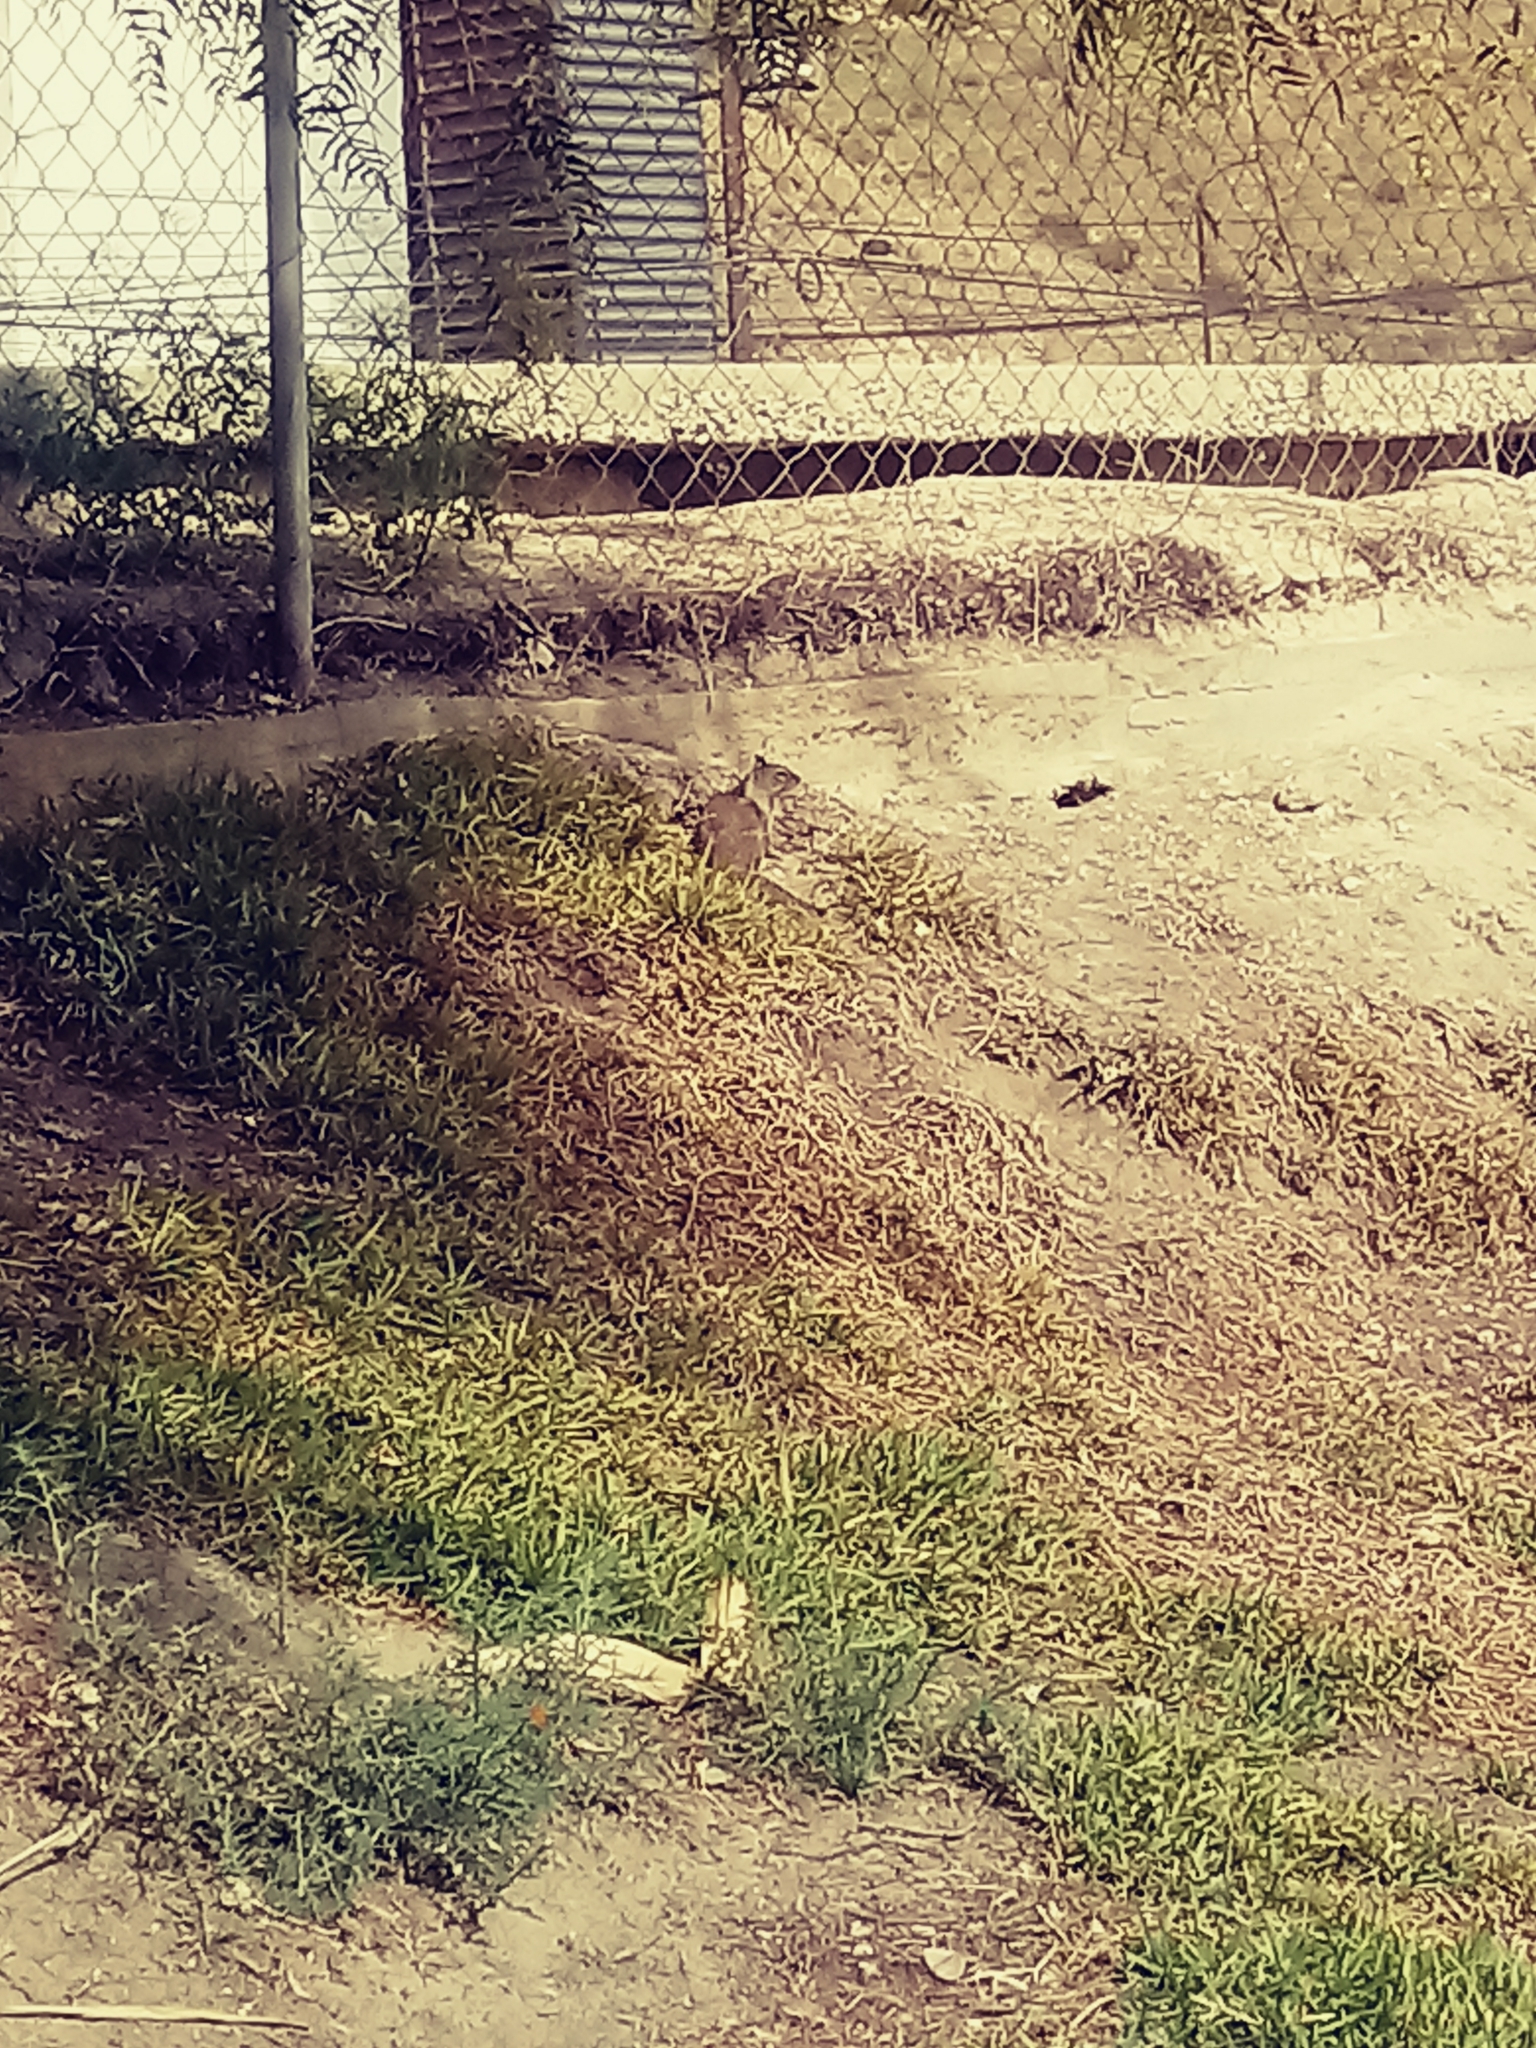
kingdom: Animalia
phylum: Chordata
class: Mammalia
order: Rodentia
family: Sciuridae
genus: Otospermophilus
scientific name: Otospermophilus beecheyi
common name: California ground squirrel
